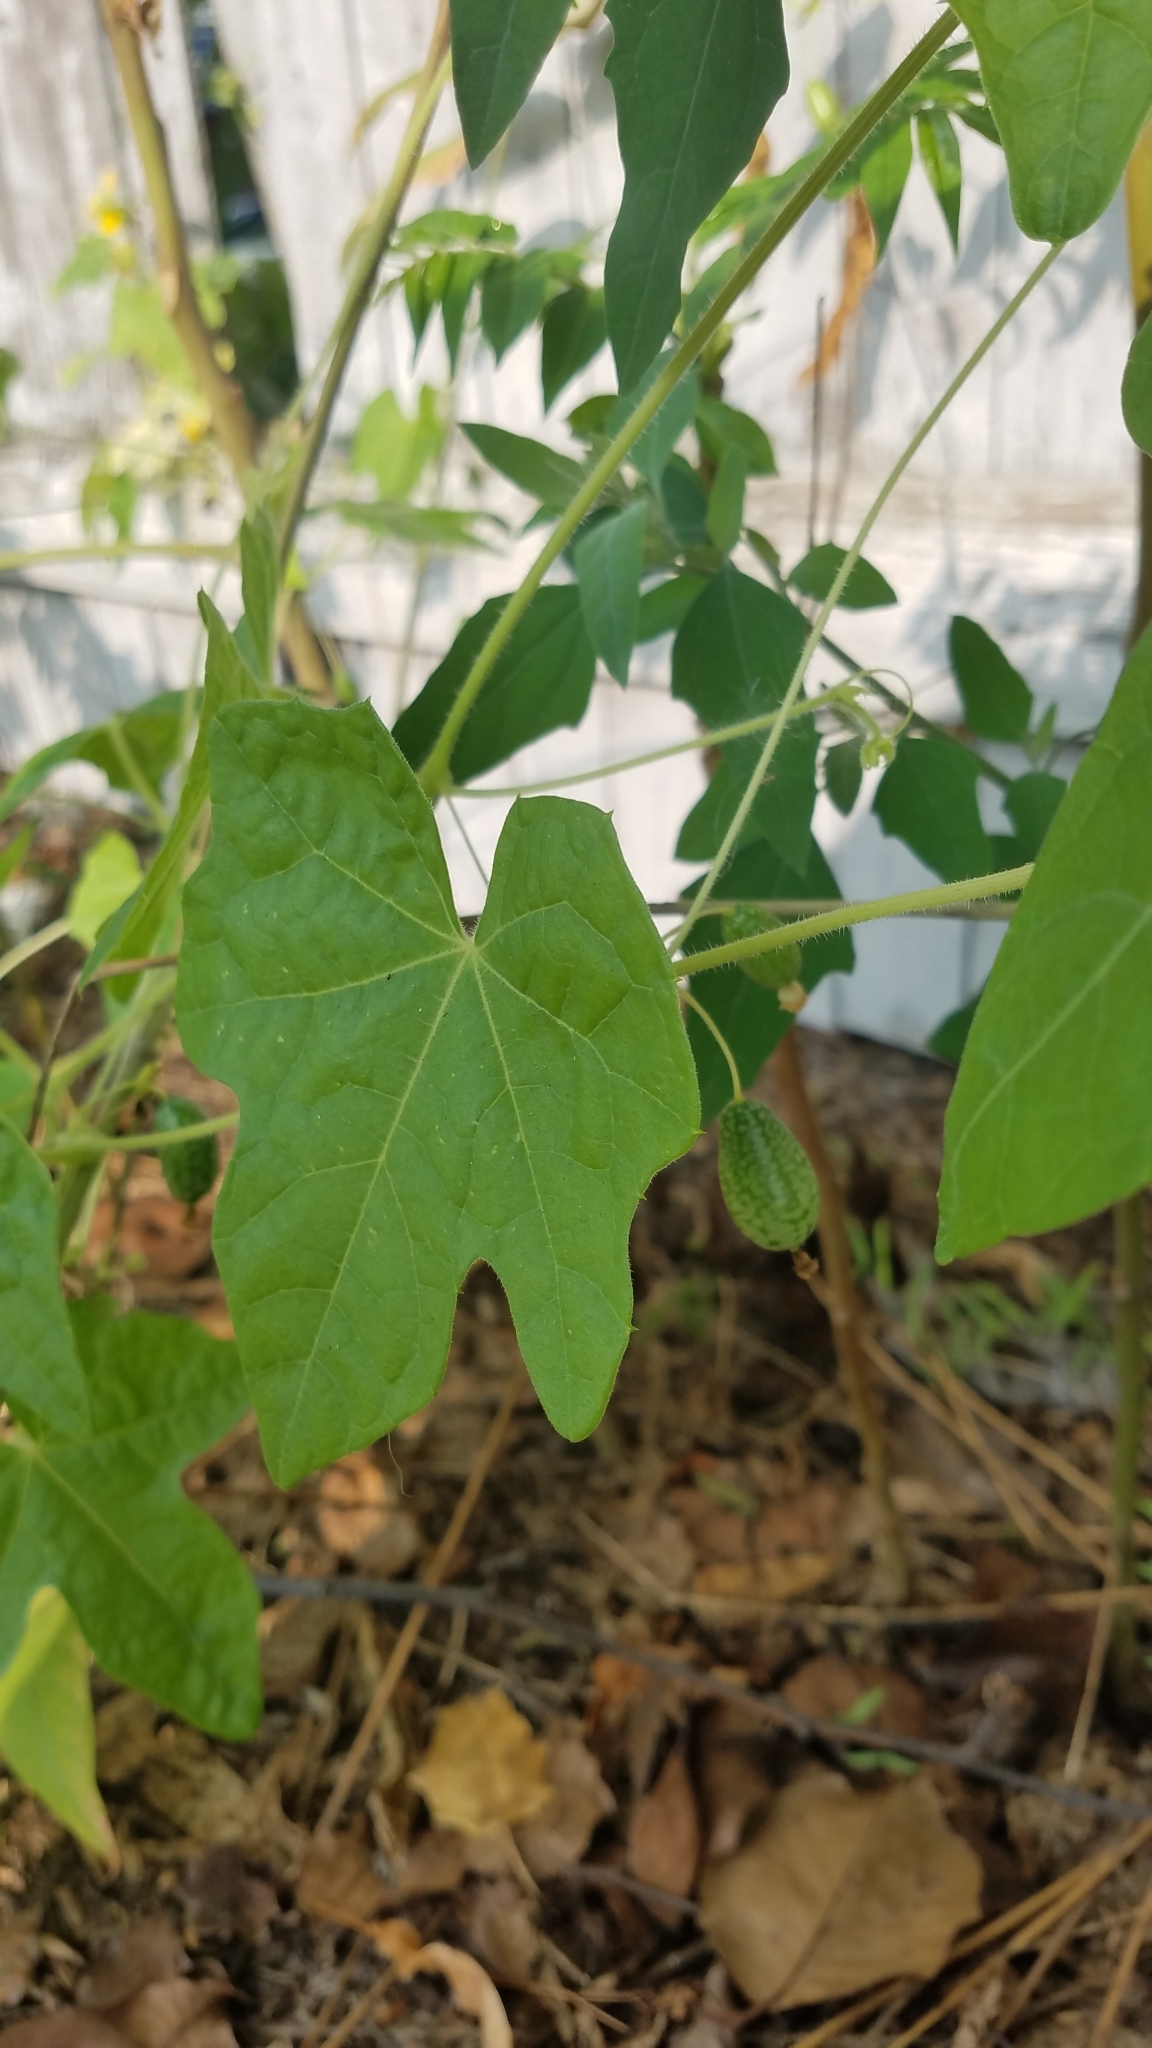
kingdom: Plantae
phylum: Tracheophyta
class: Magnoliopsida
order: Cucurbitales
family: Cucurbitaceae
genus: Echinocystis
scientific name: Echinocystis lobata
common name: Wild cucumber
